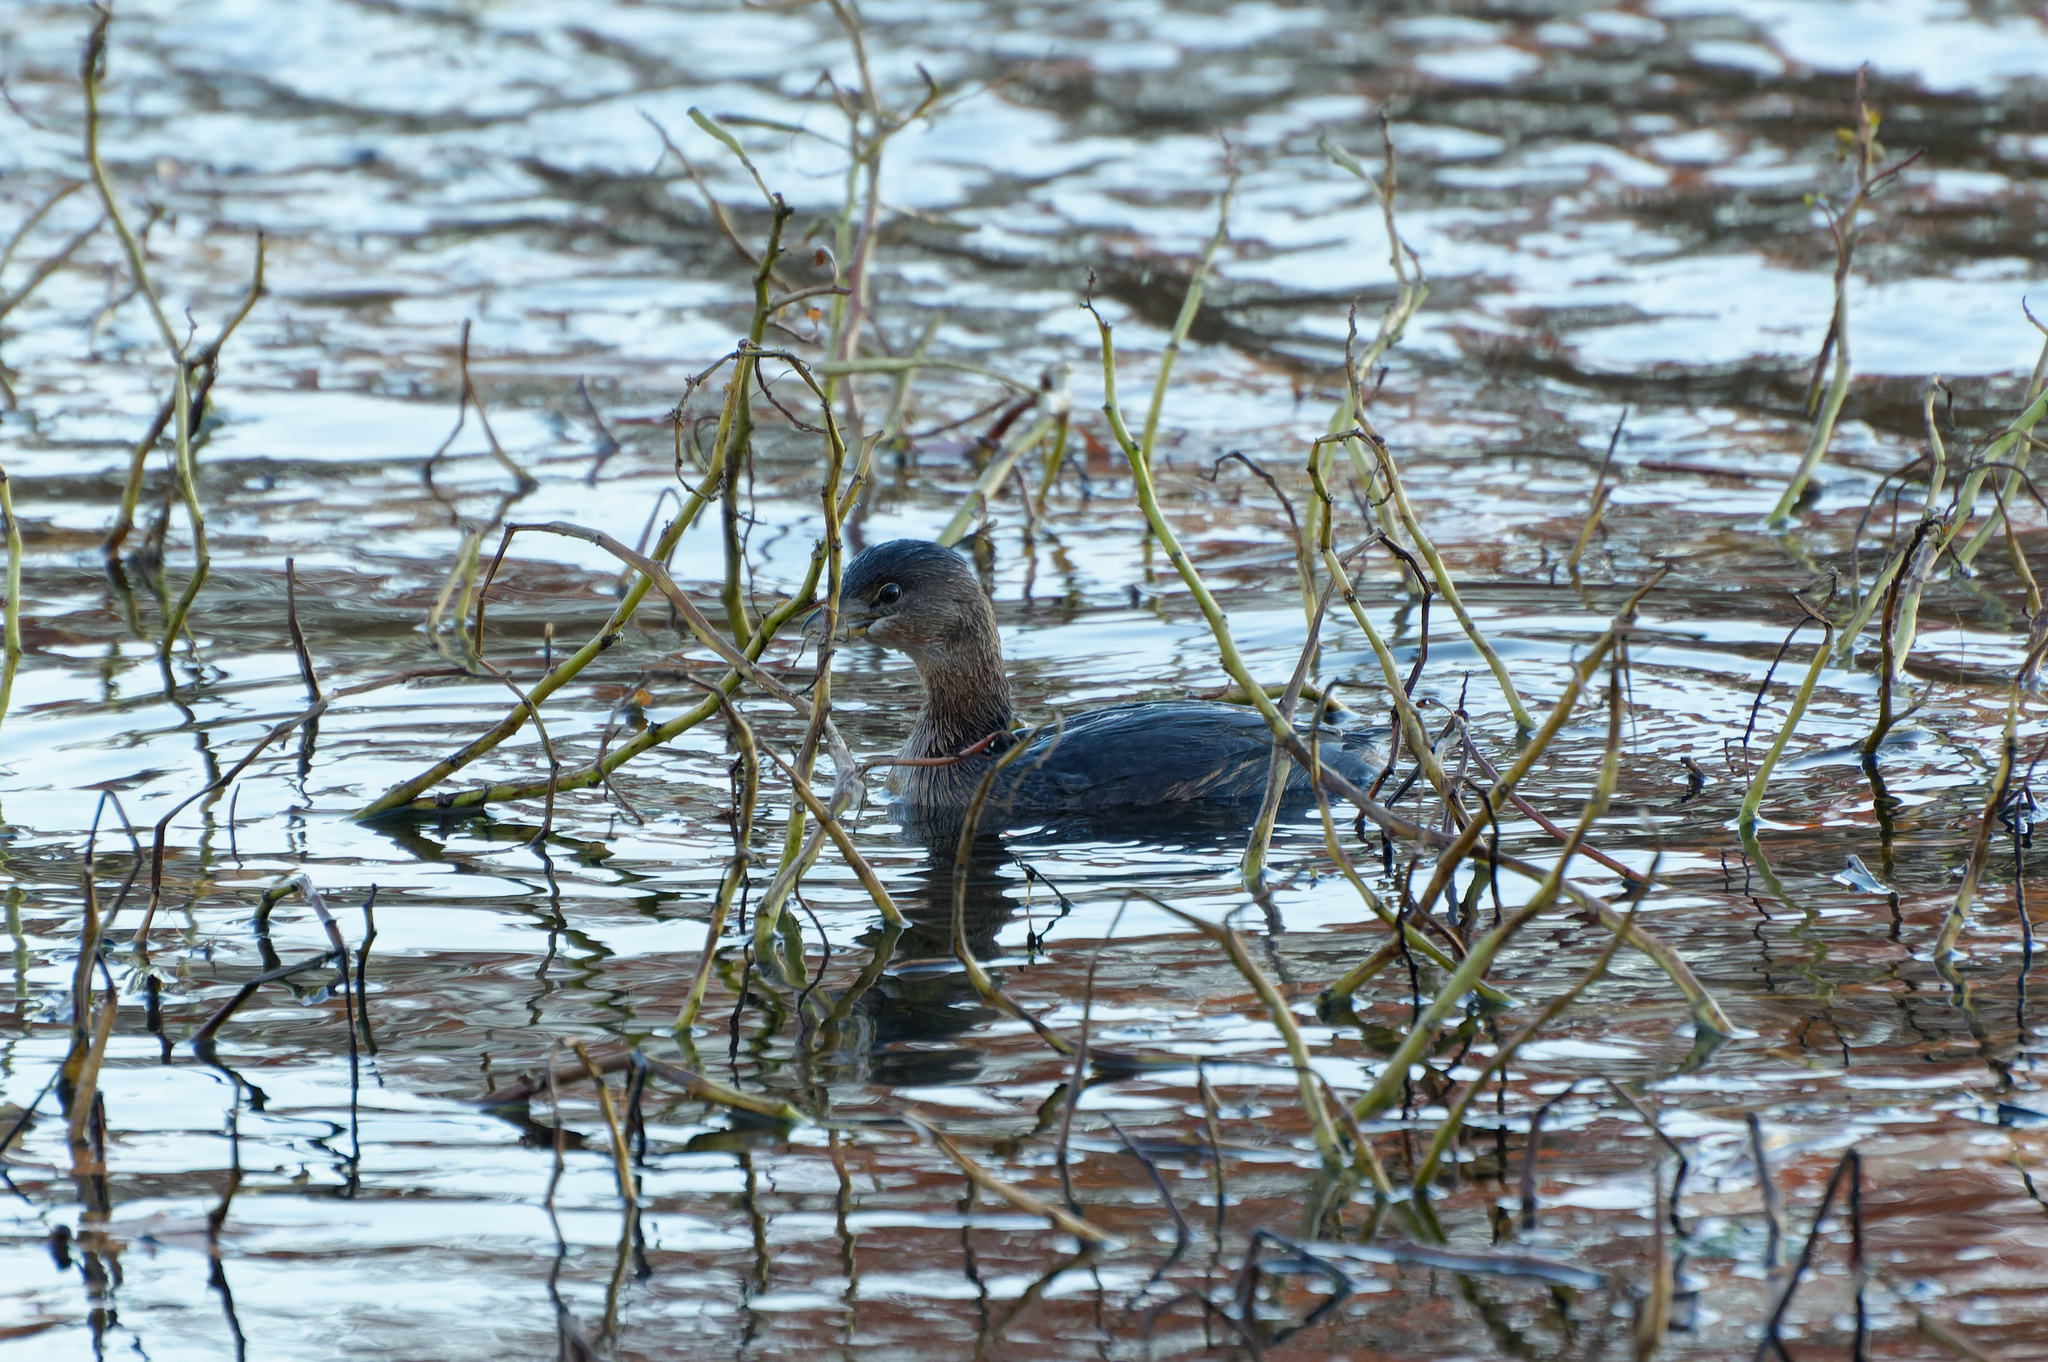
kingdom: Animalia
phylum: Chordata
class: Aves
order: Podicipediformes
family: Podicipedidae
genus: Podilymbus
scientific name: Podilymbus podiceps
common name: Pied-billed grebe
